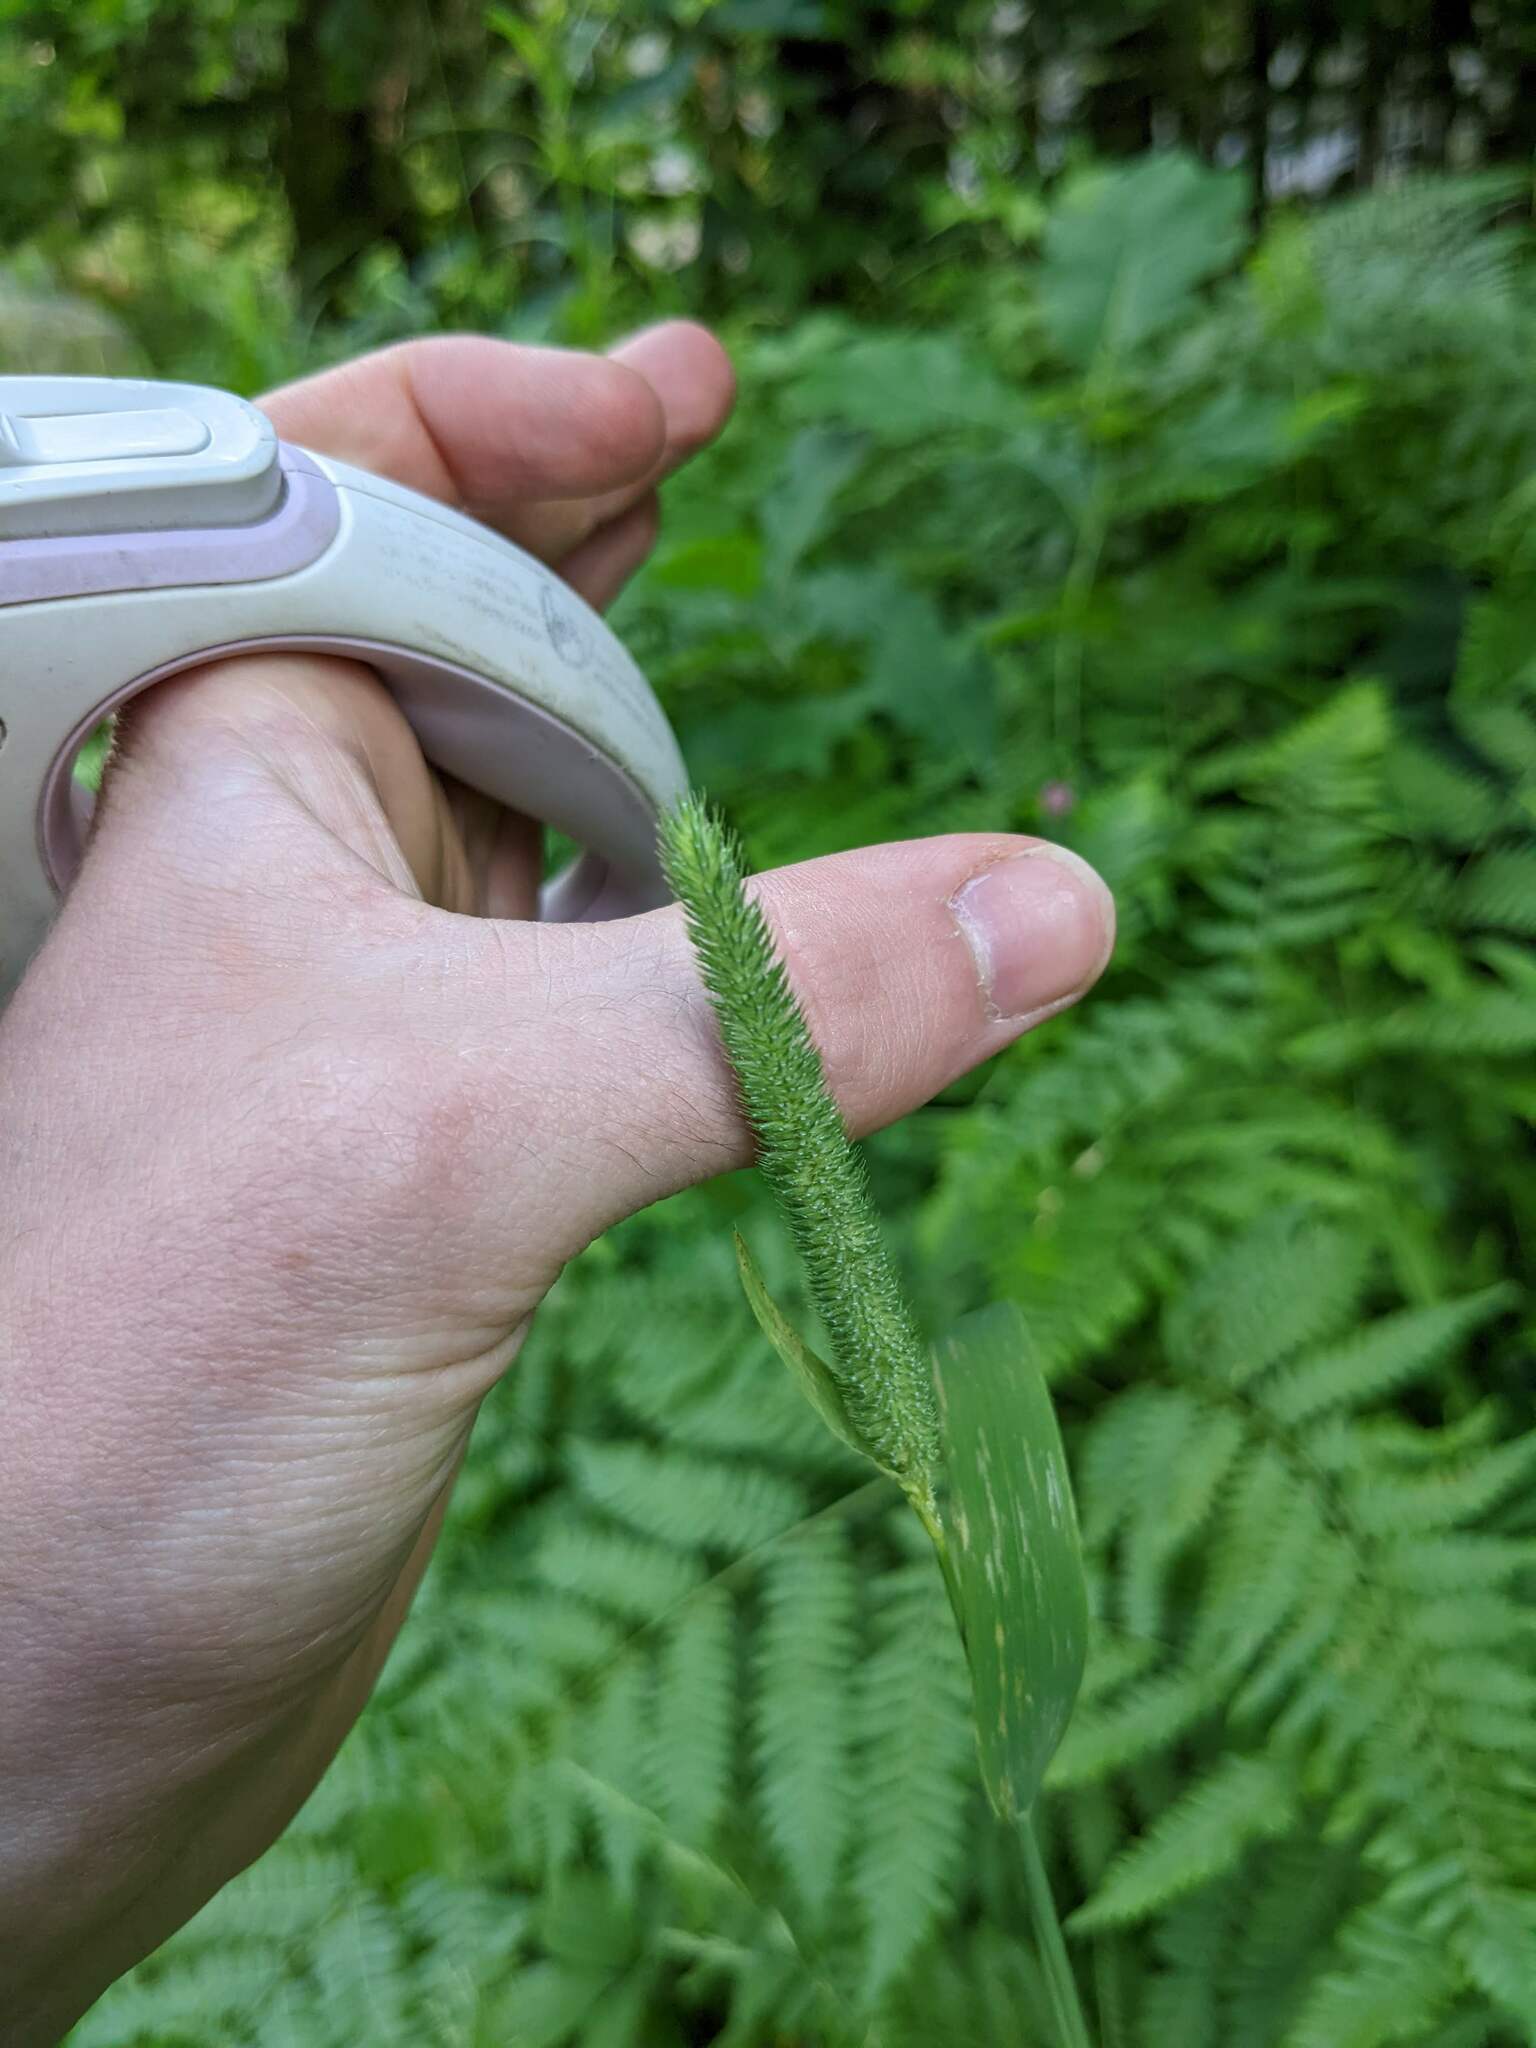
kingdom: Plantae
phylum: Tracheophyta
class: Liliopsida
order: Poales
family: Poaceae
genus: Phleum
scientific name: Phleum pratense
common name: Timothy grass
